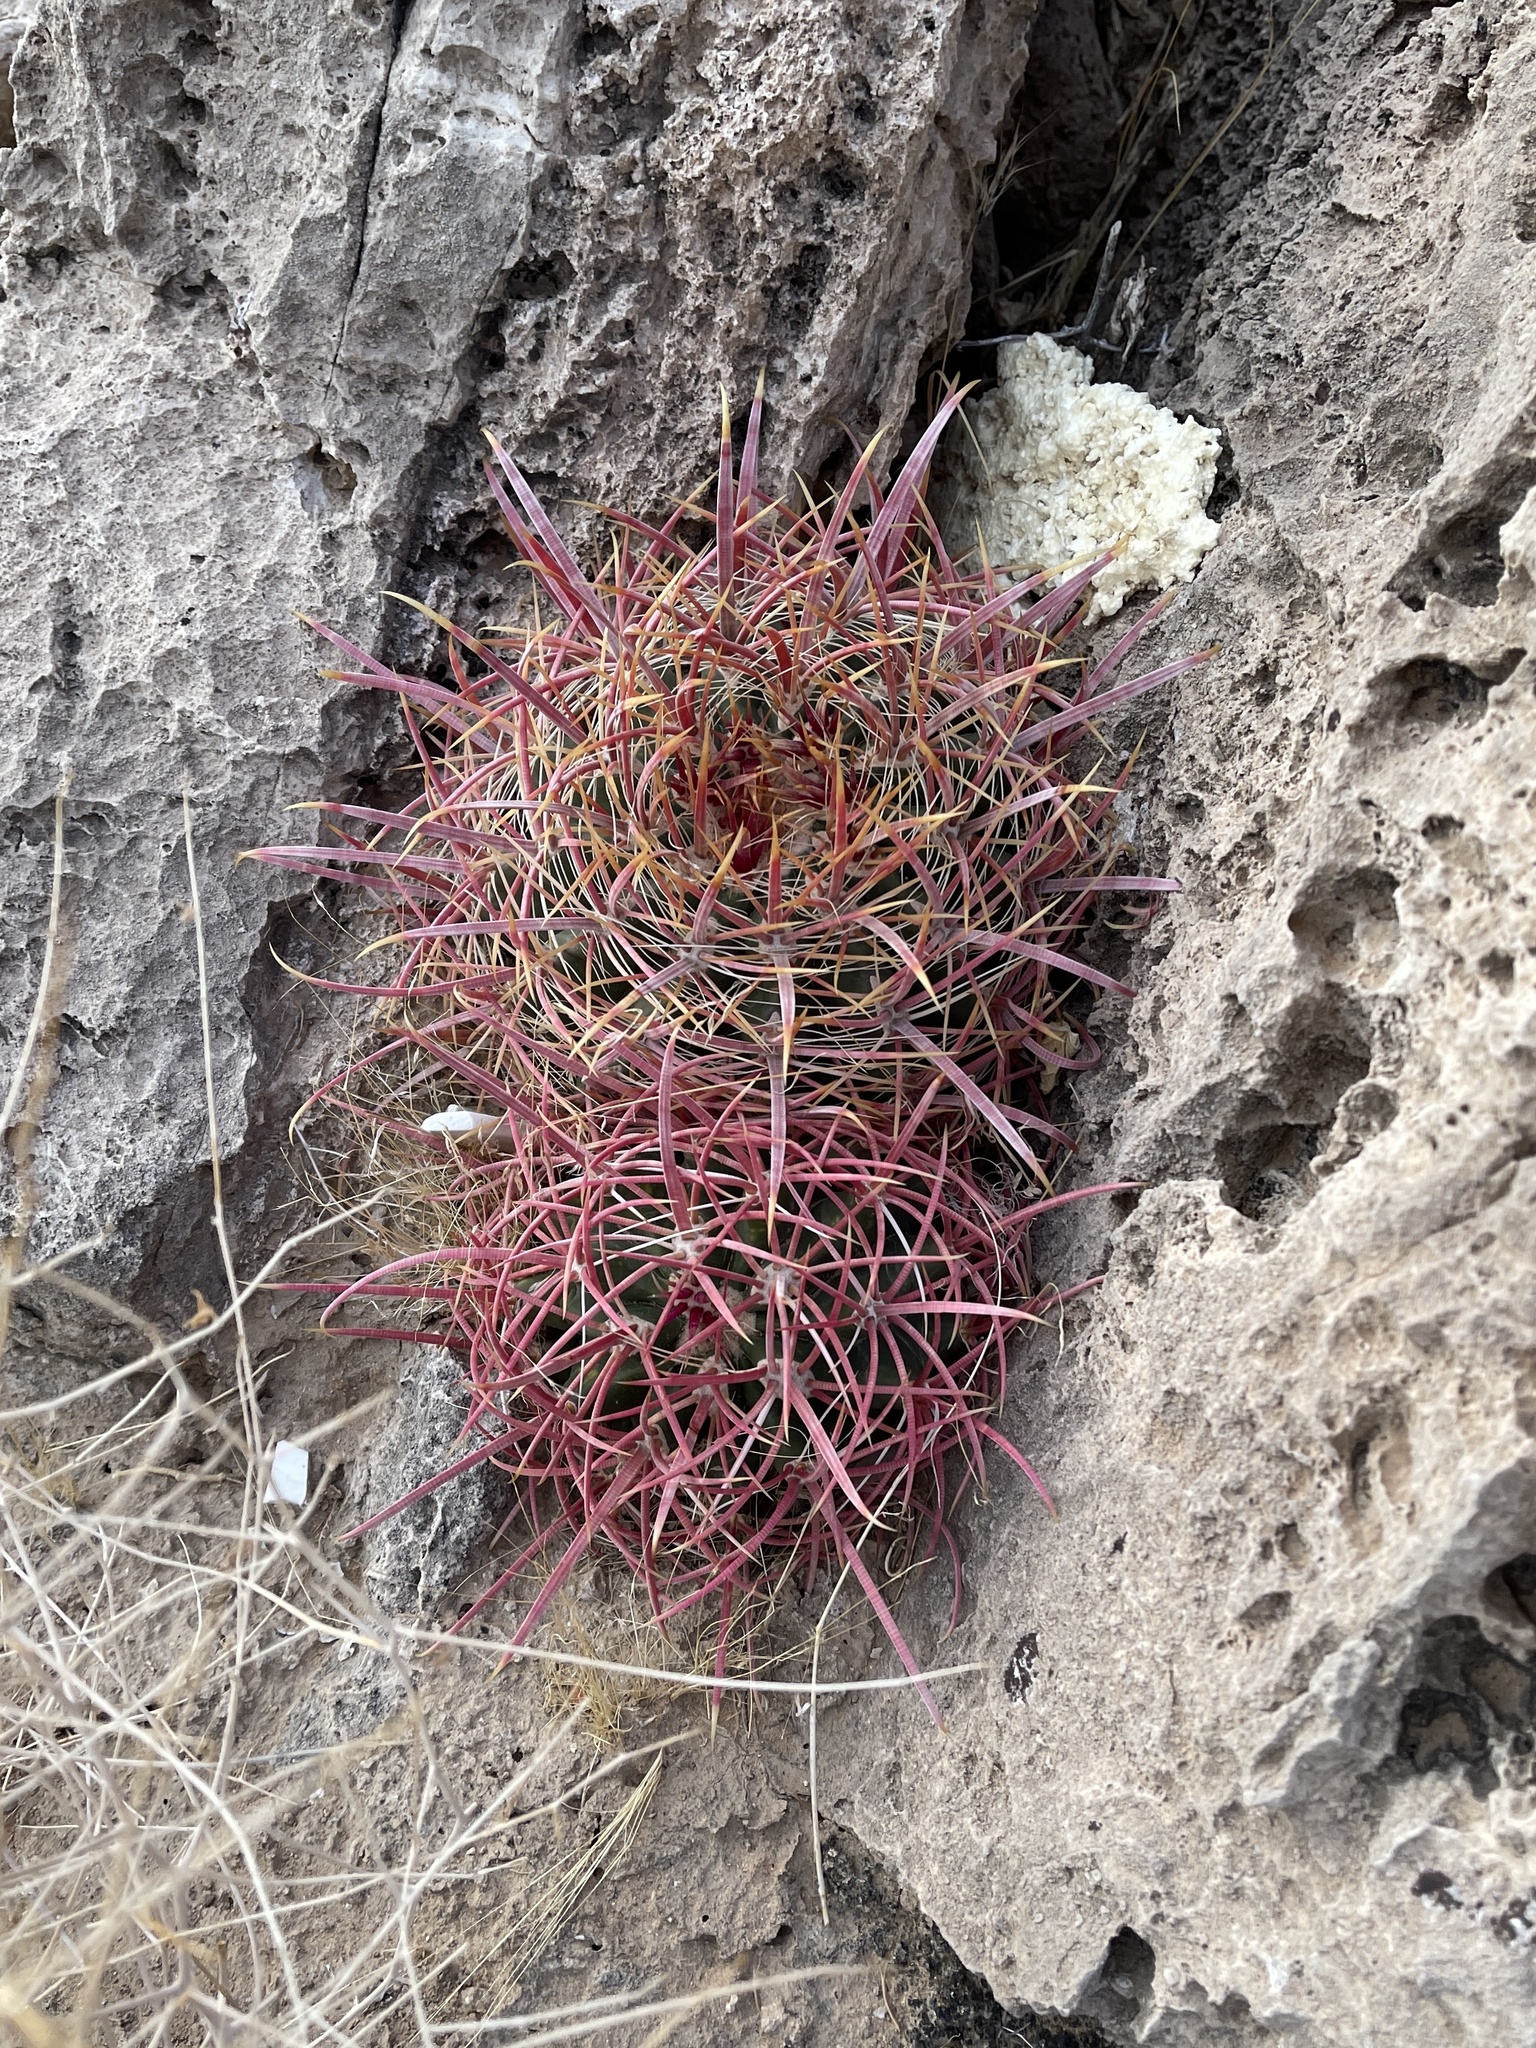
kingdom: Plantae
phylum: Tracheophyta
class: Magnoliopsida
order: Caryophyllales
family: Cactaceae
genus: Ferocactus
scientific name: Ferocactus cylindraceus
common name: California barrel cactus
